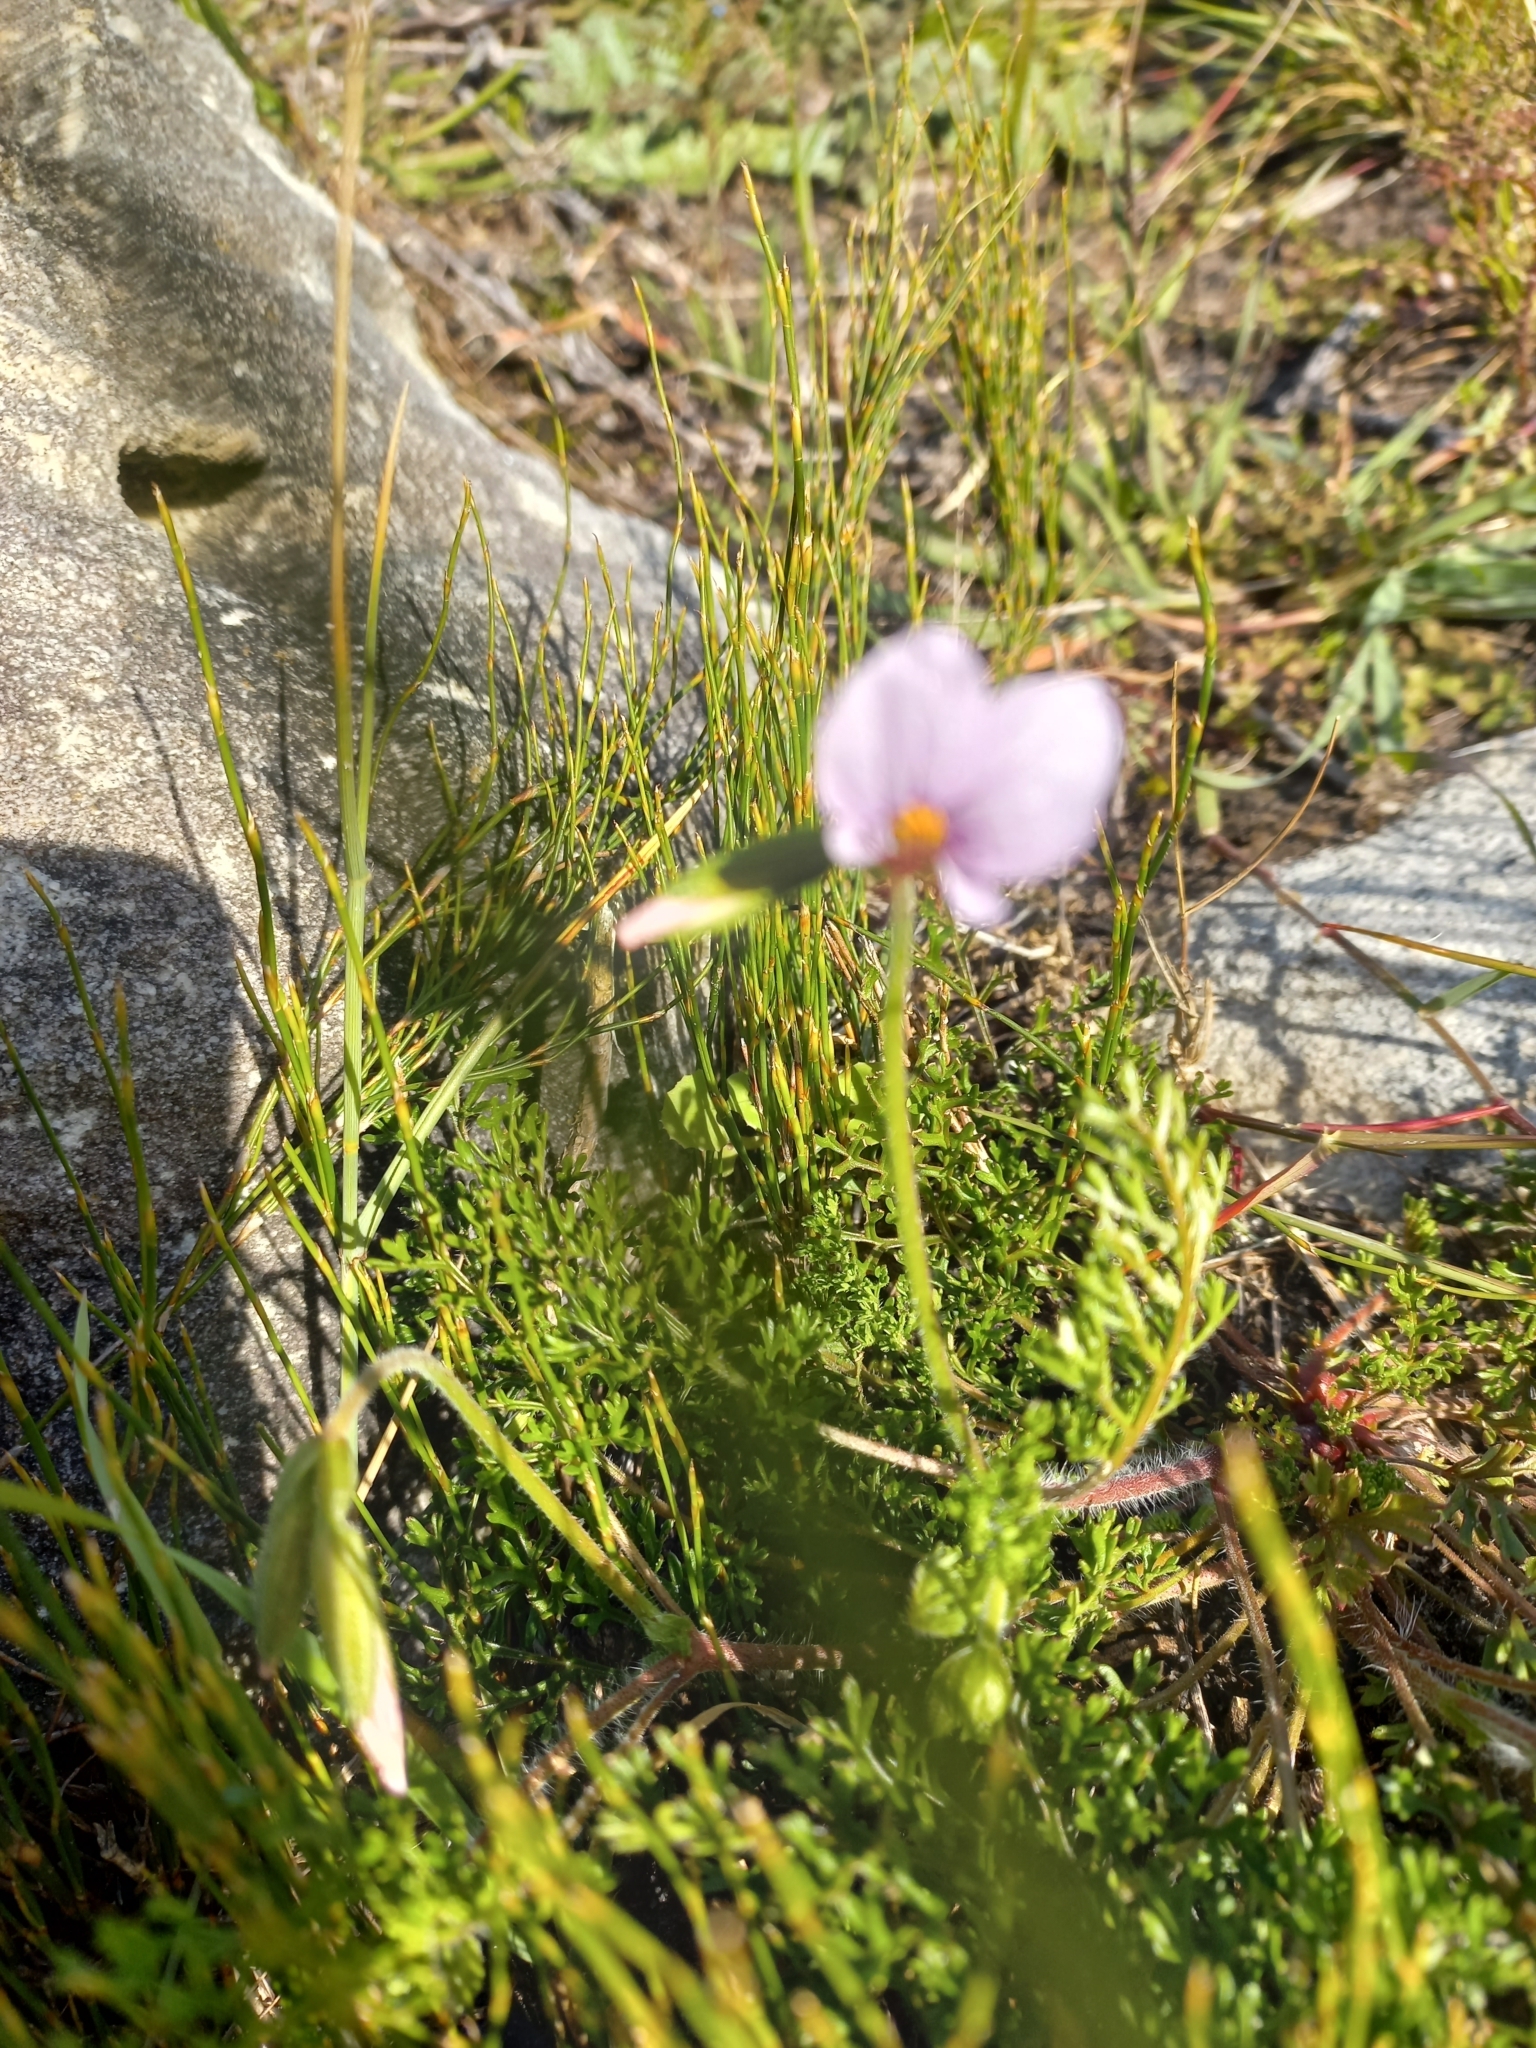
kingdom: Plantae
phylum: Tracheophyta
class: Magnoliopsida
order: Geraniales
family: Geraniaceae
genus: Pelargonium
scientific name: Pelargonium myrrhifolium
